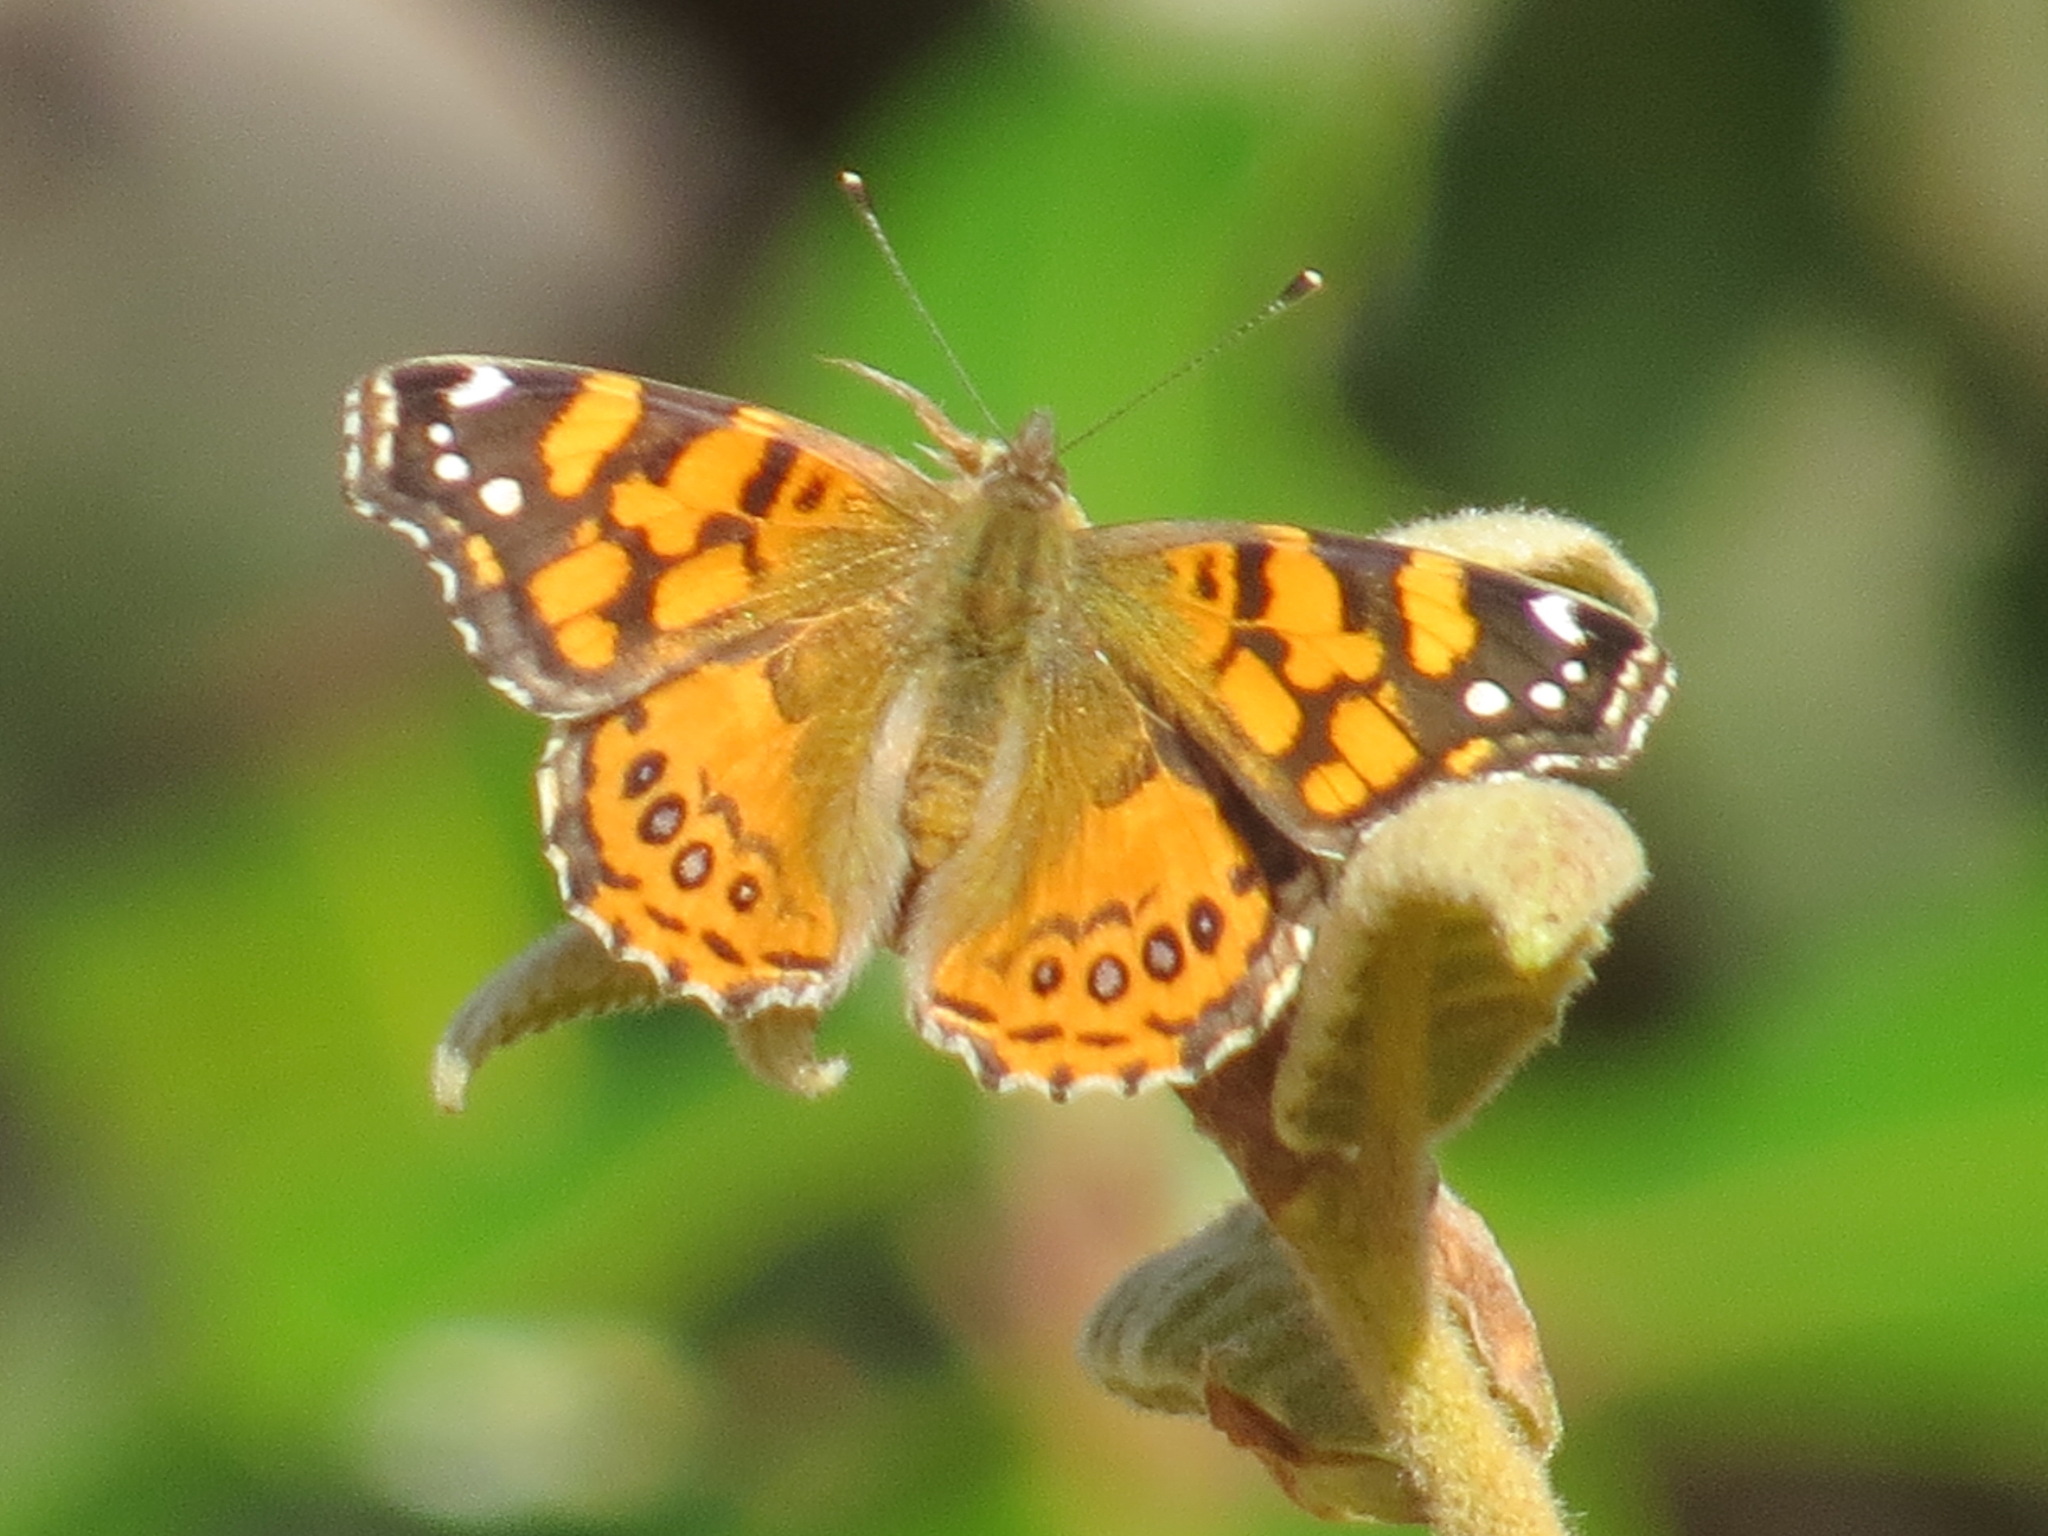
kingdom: Animalia
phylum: Arthropoda
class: Insecta
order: Lepidoptera
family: Nymphalidae
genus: Vanessa
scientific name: Vanessa annabella
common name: West coast lady
